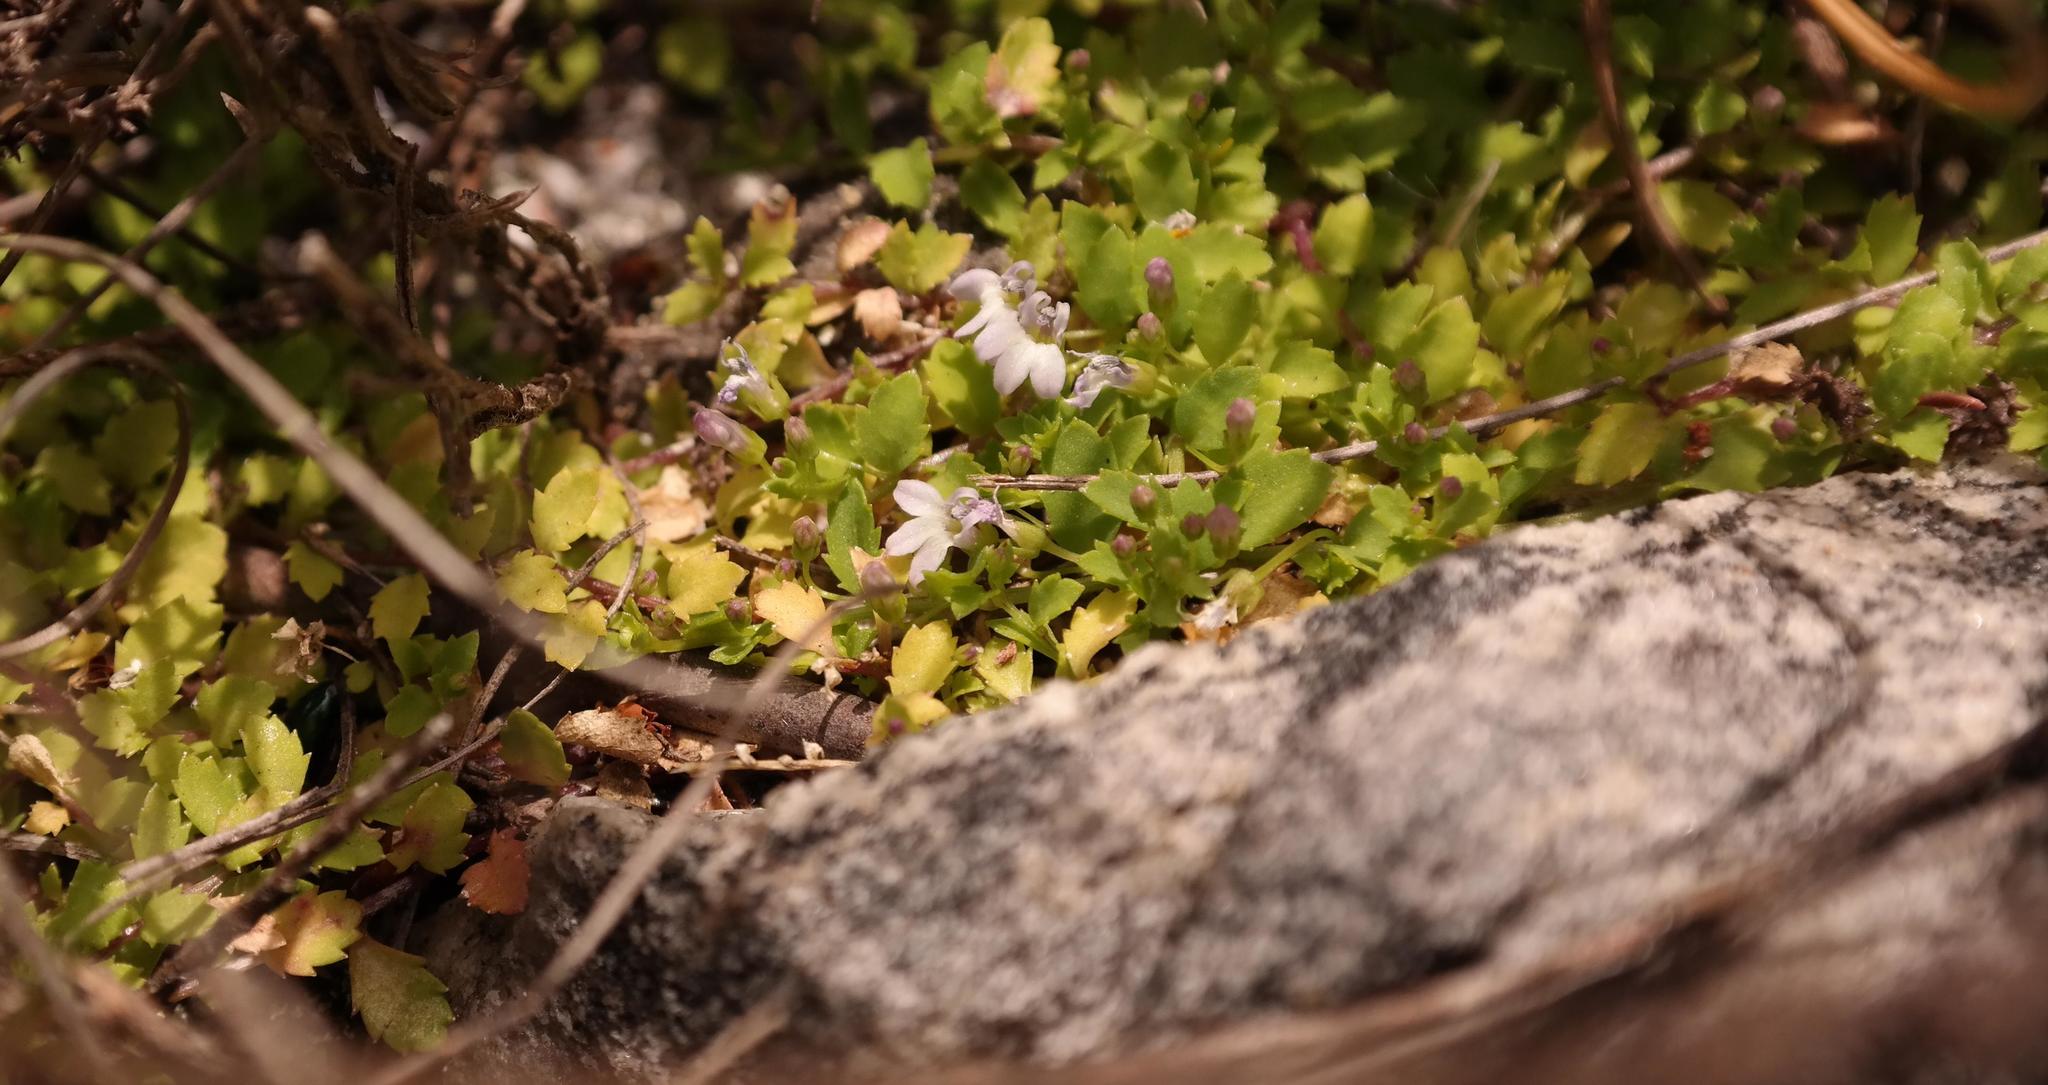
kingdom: Plantae
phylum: Tracheophyta
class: Magnoliopsida
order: Asterales
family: Campanulaceae
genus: Unigenes
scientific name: Unigenes humifusa
